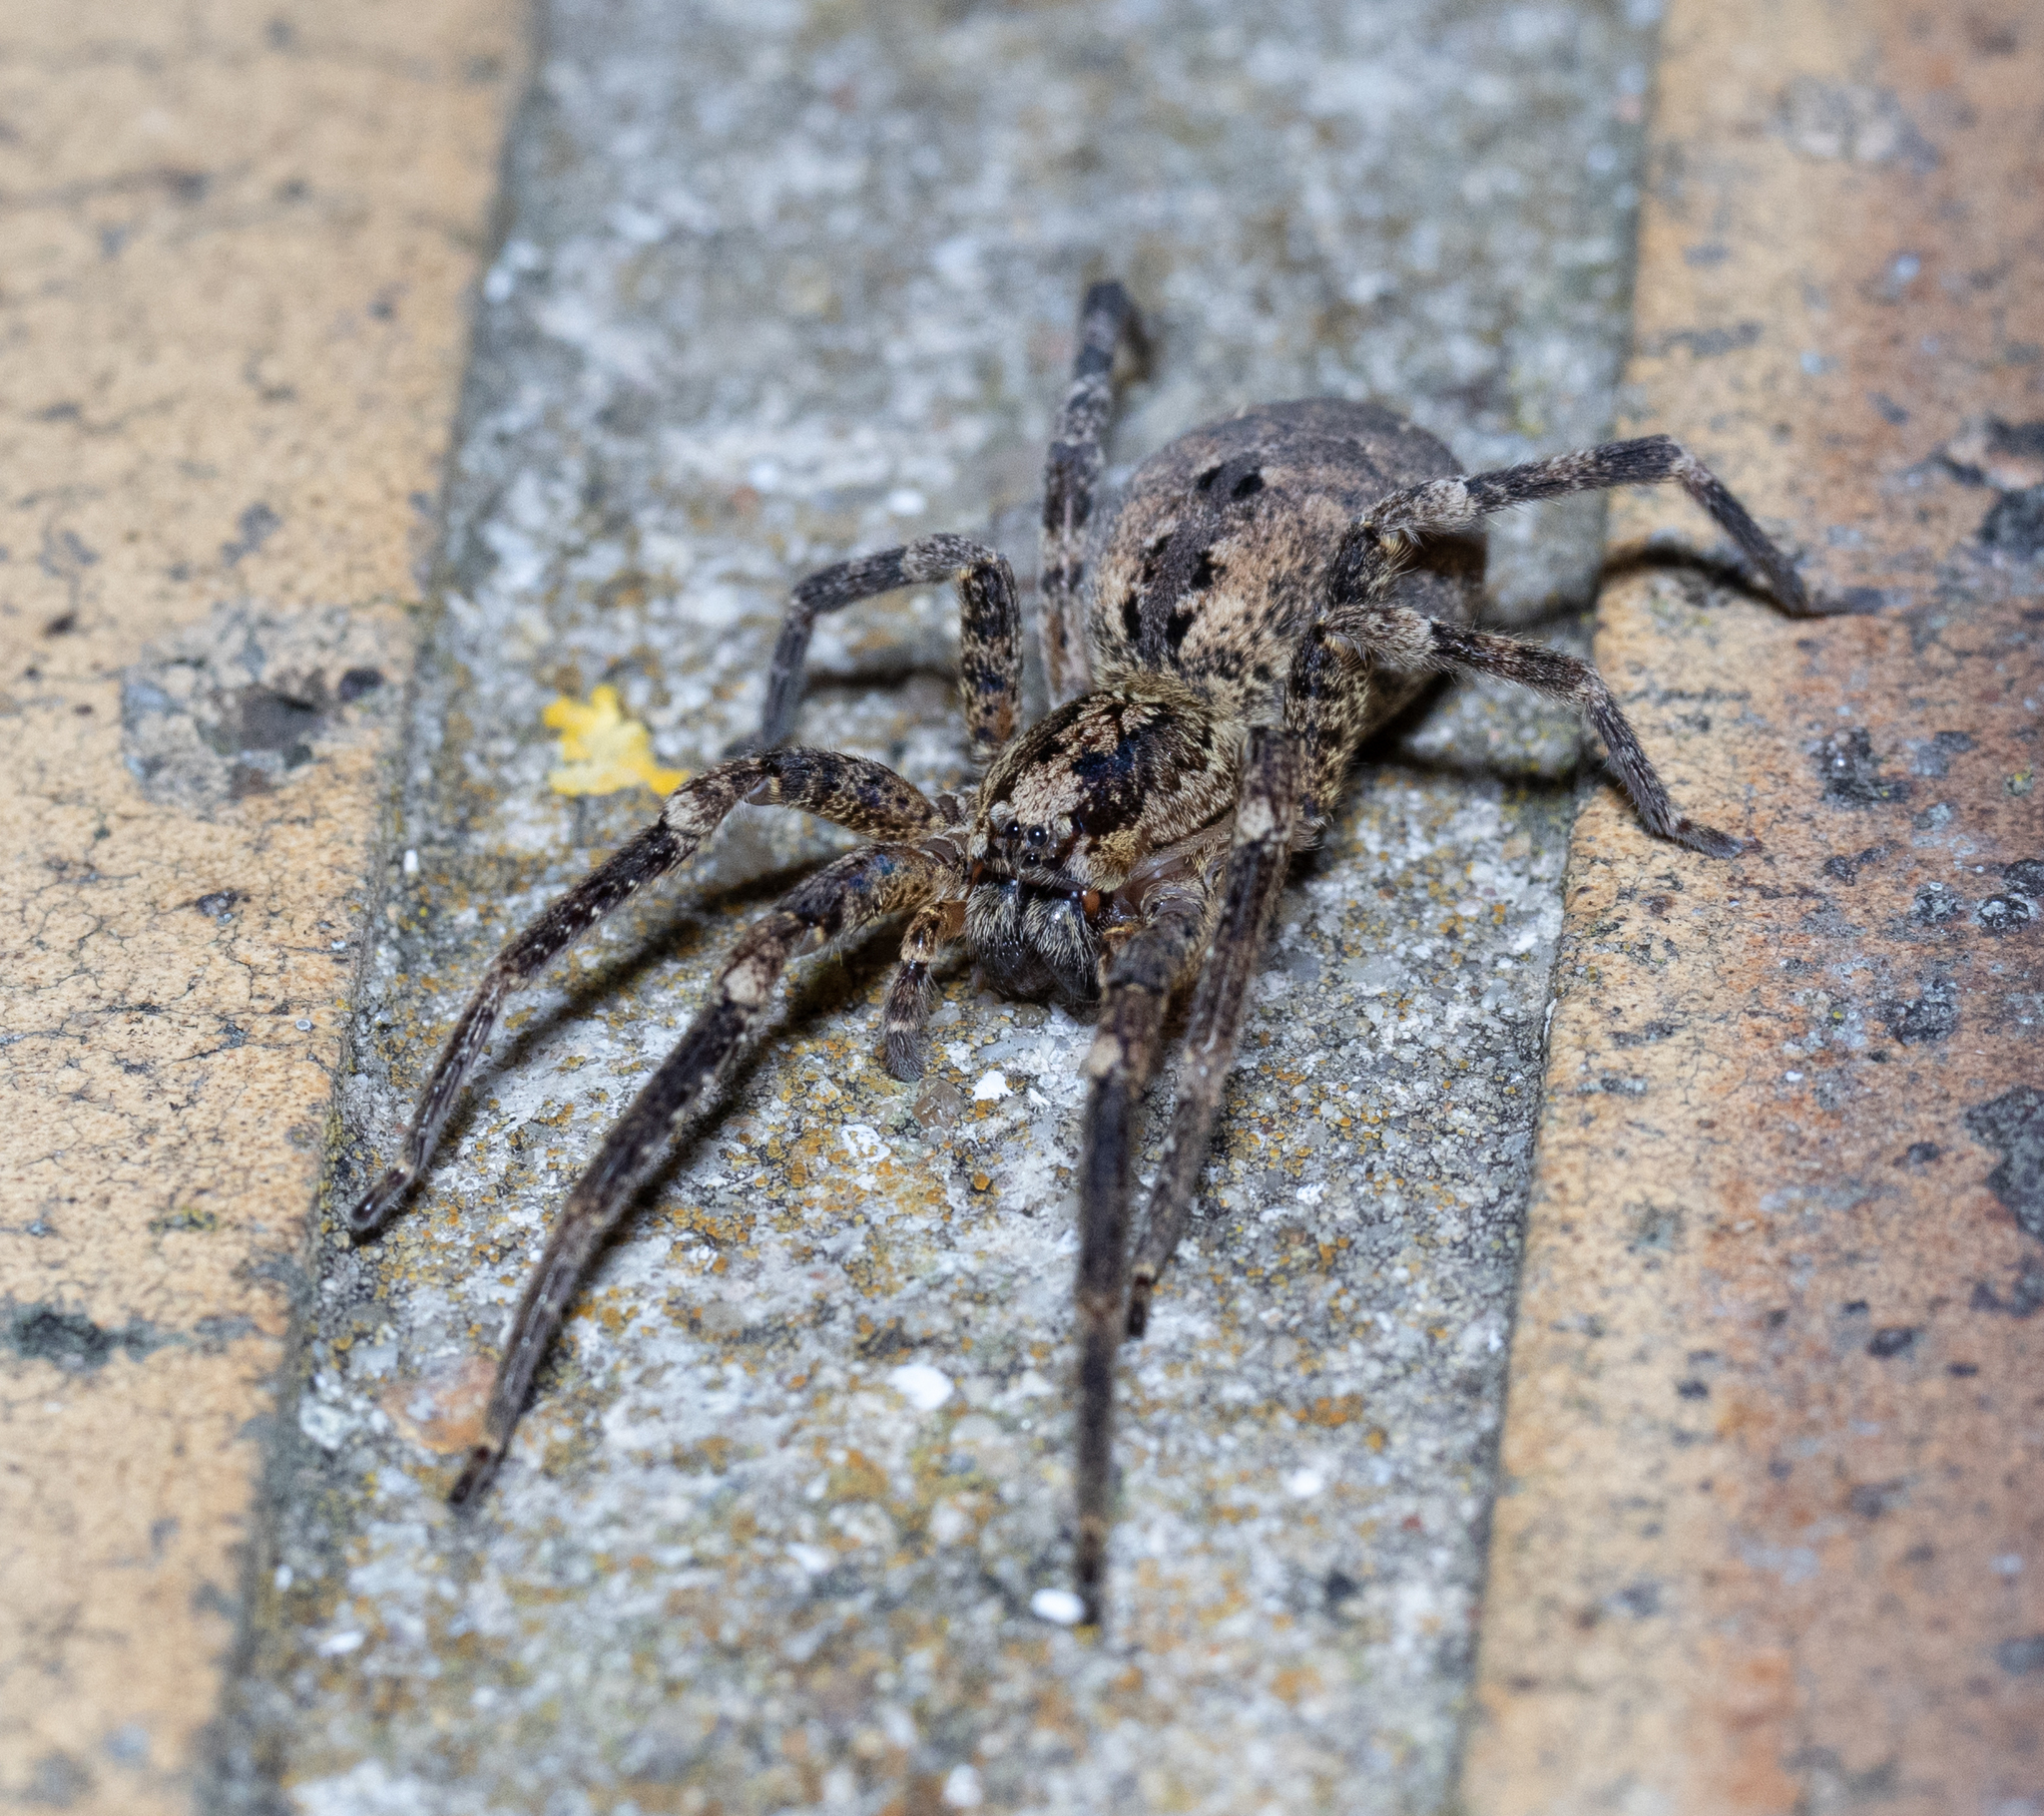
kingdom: Animalia
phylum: Arthropoda
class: Arachnida
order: Araneae
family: Zoropsidae
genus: Zoropsis
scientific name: Zoropsis spinimana
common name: Zoropsid spider
